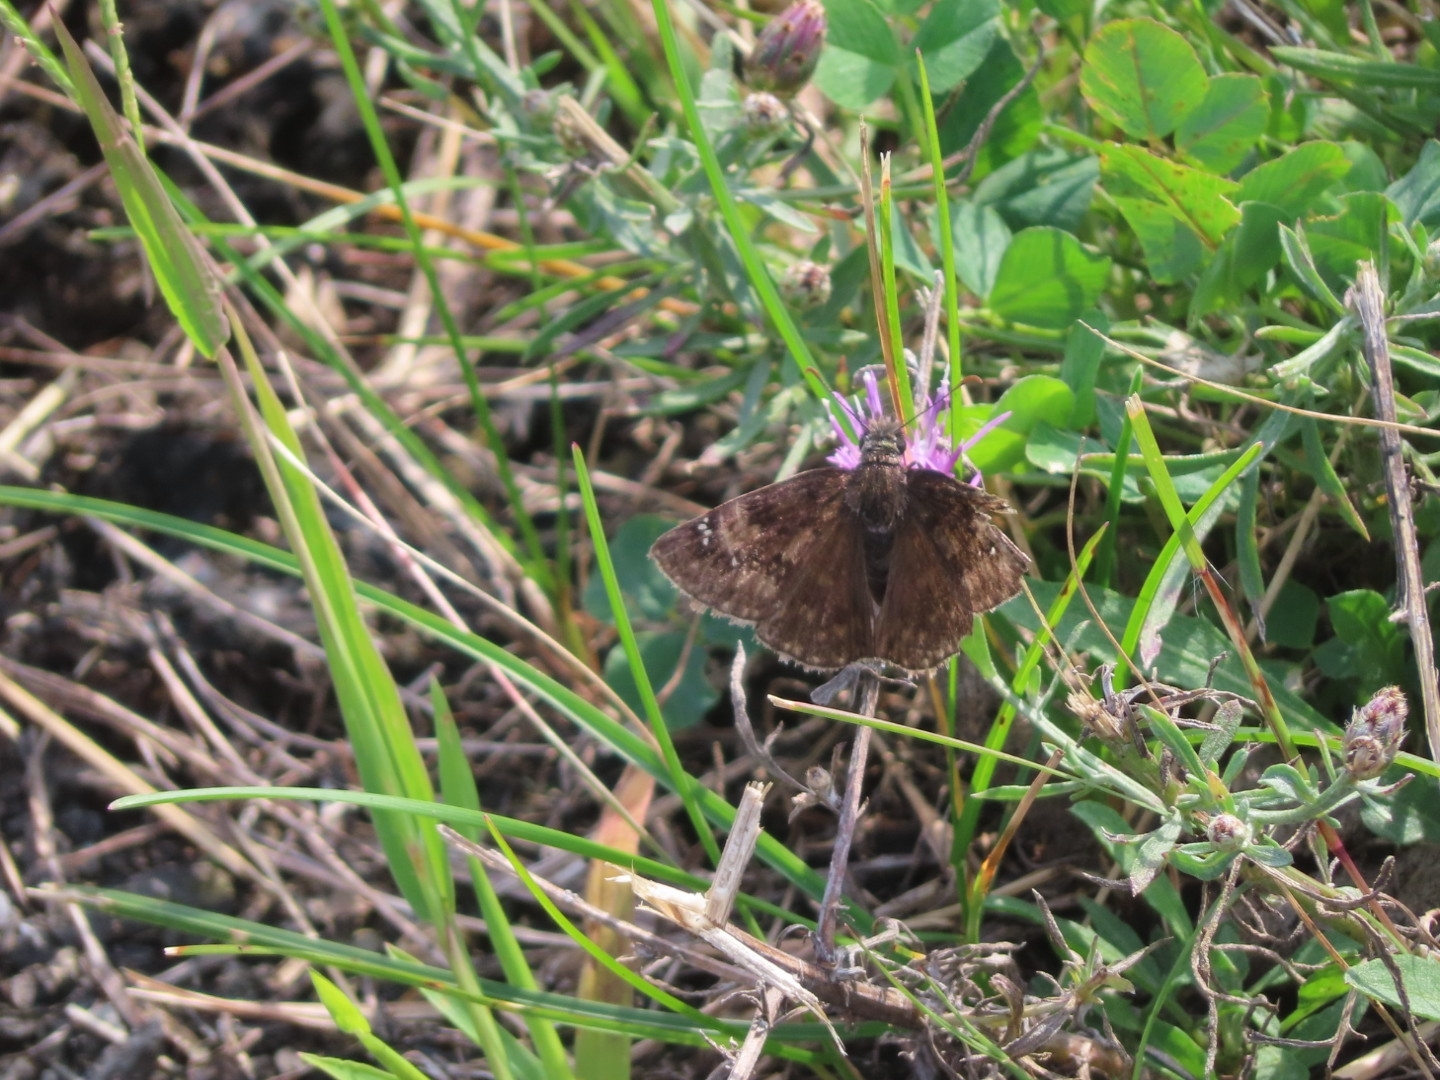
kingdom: Animalia
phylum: Arthropoda
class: Insecta
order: Lepidoptera
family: Hesperiidae
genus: Erynnis
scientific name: Erynnis baptisiae
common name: Wild indigo duskywing
